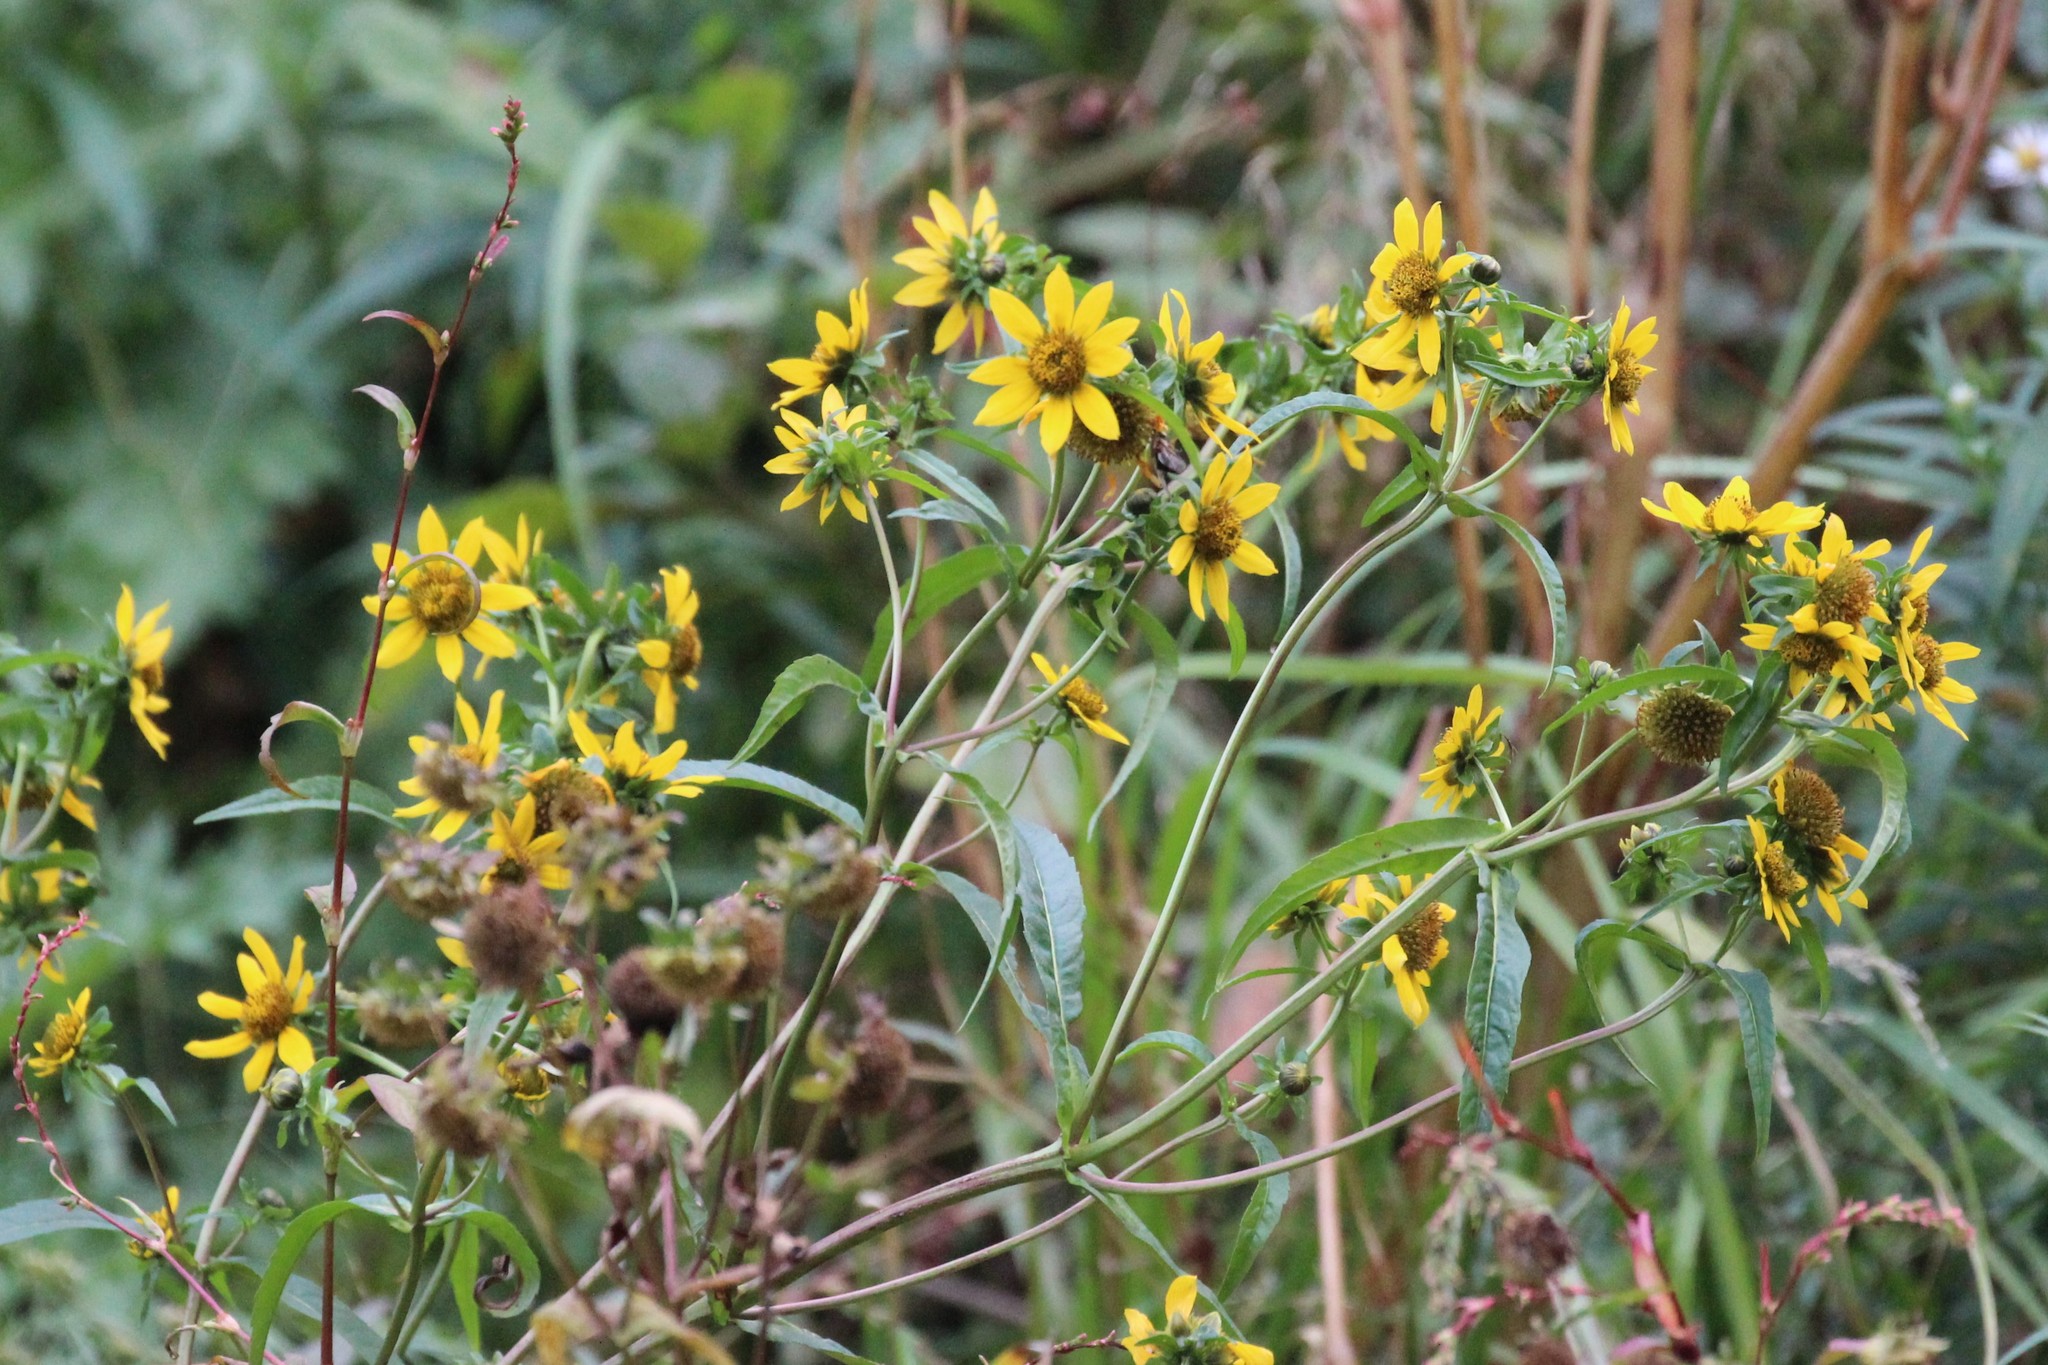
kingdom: Plantae
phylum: Tracheophyta
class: Magnoliopsida
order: Asterales
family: Asteraceae
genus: Bidens
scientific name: Bidens cernua
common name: Nodding bur-marigold
